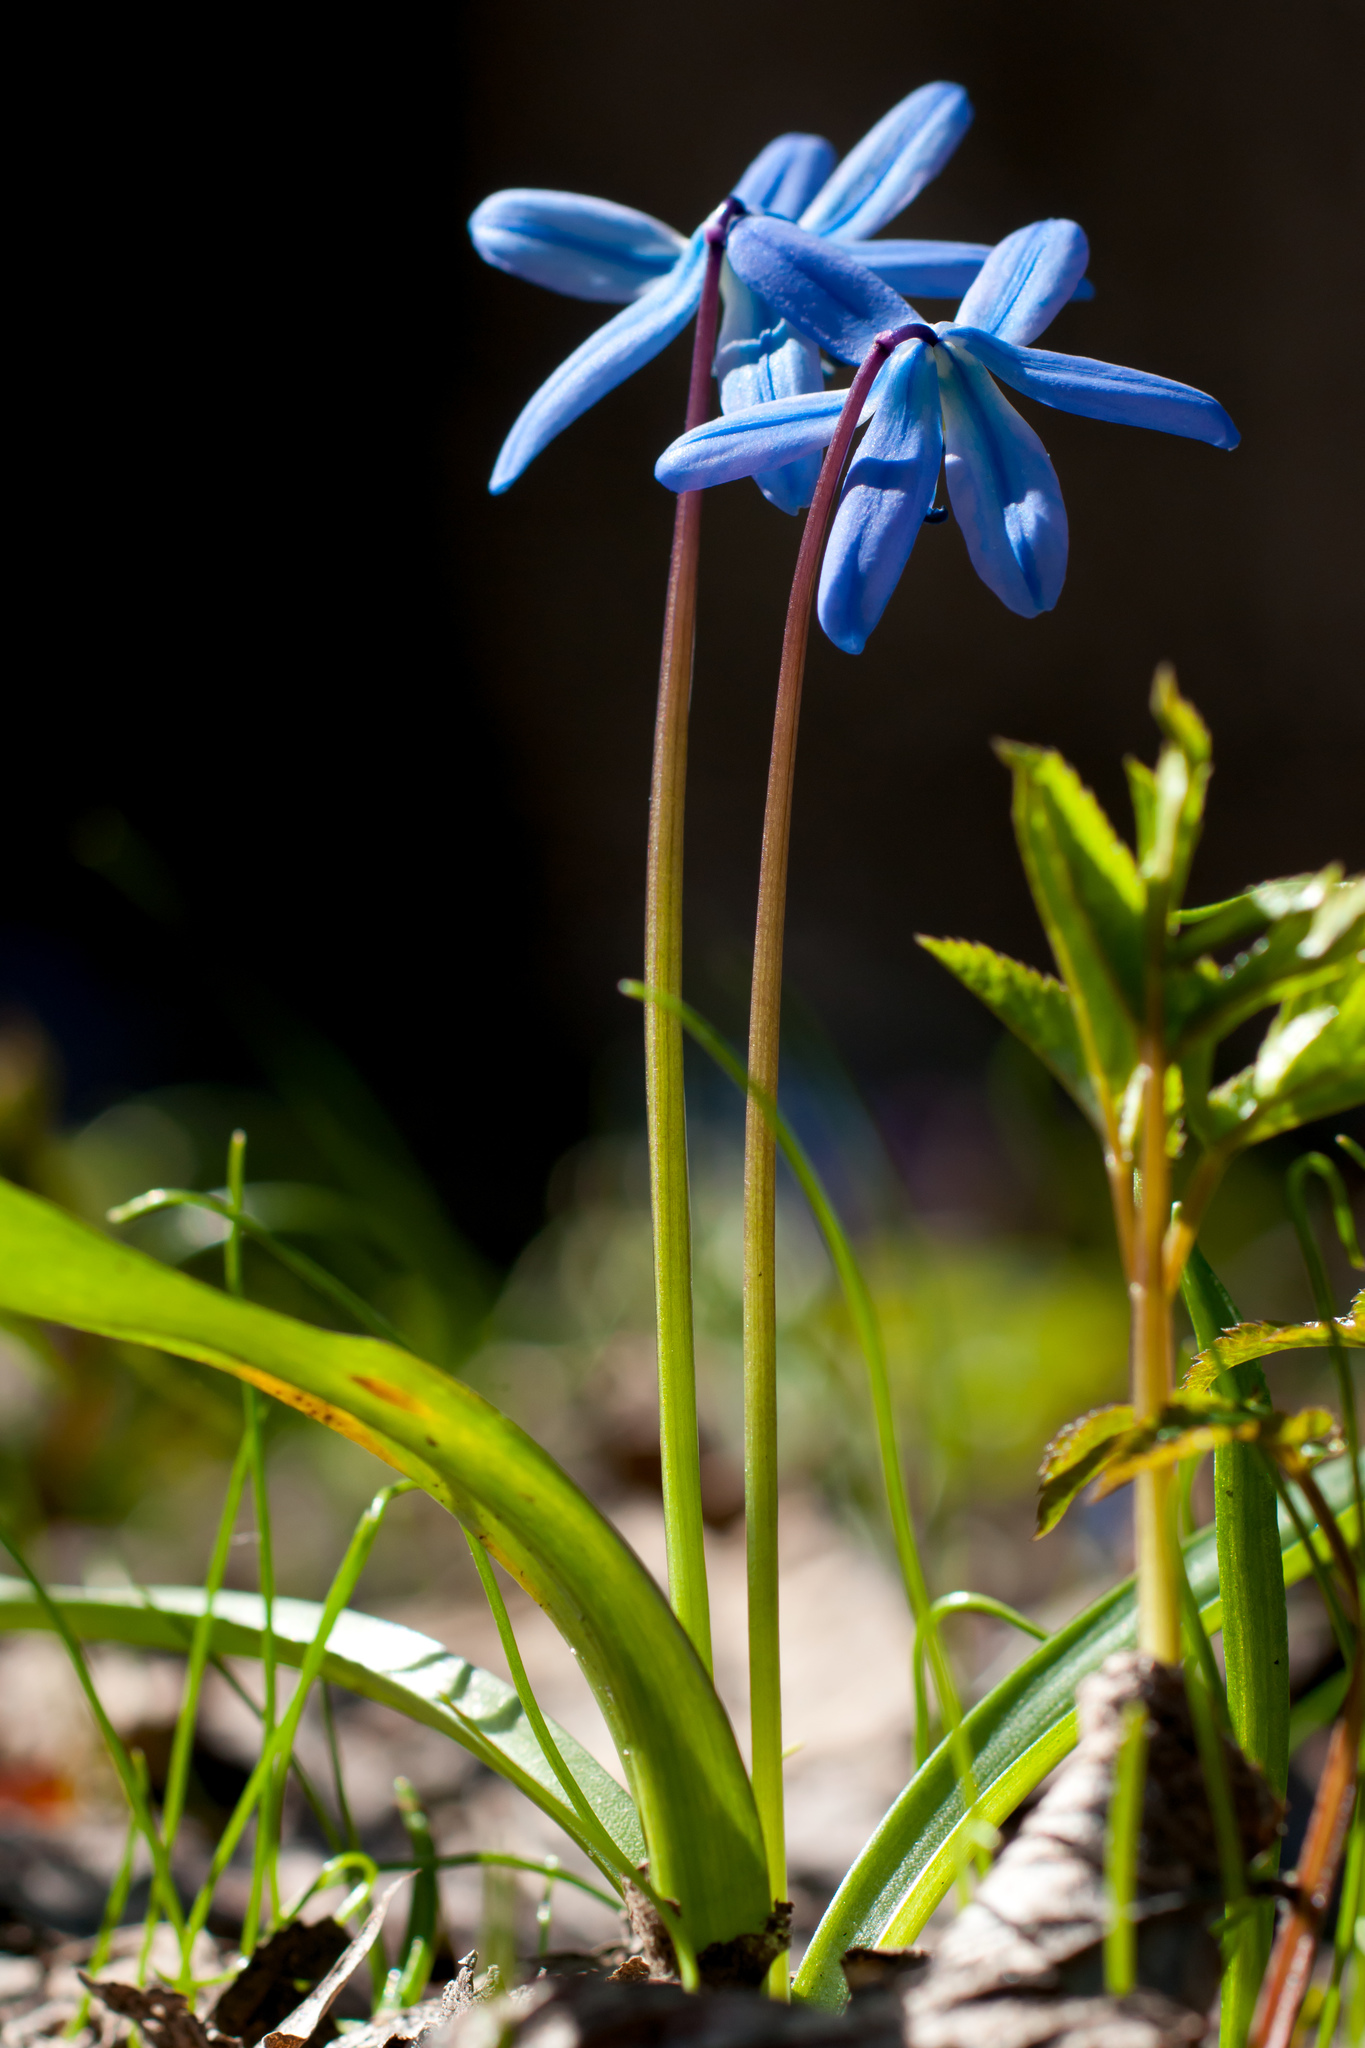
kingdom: Plantae
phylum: Tracheophyta
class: Liliopsida
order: Asparagales
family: Asparagaceae
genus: Scilla
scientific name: Scilla siberica
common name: Siberian squill
